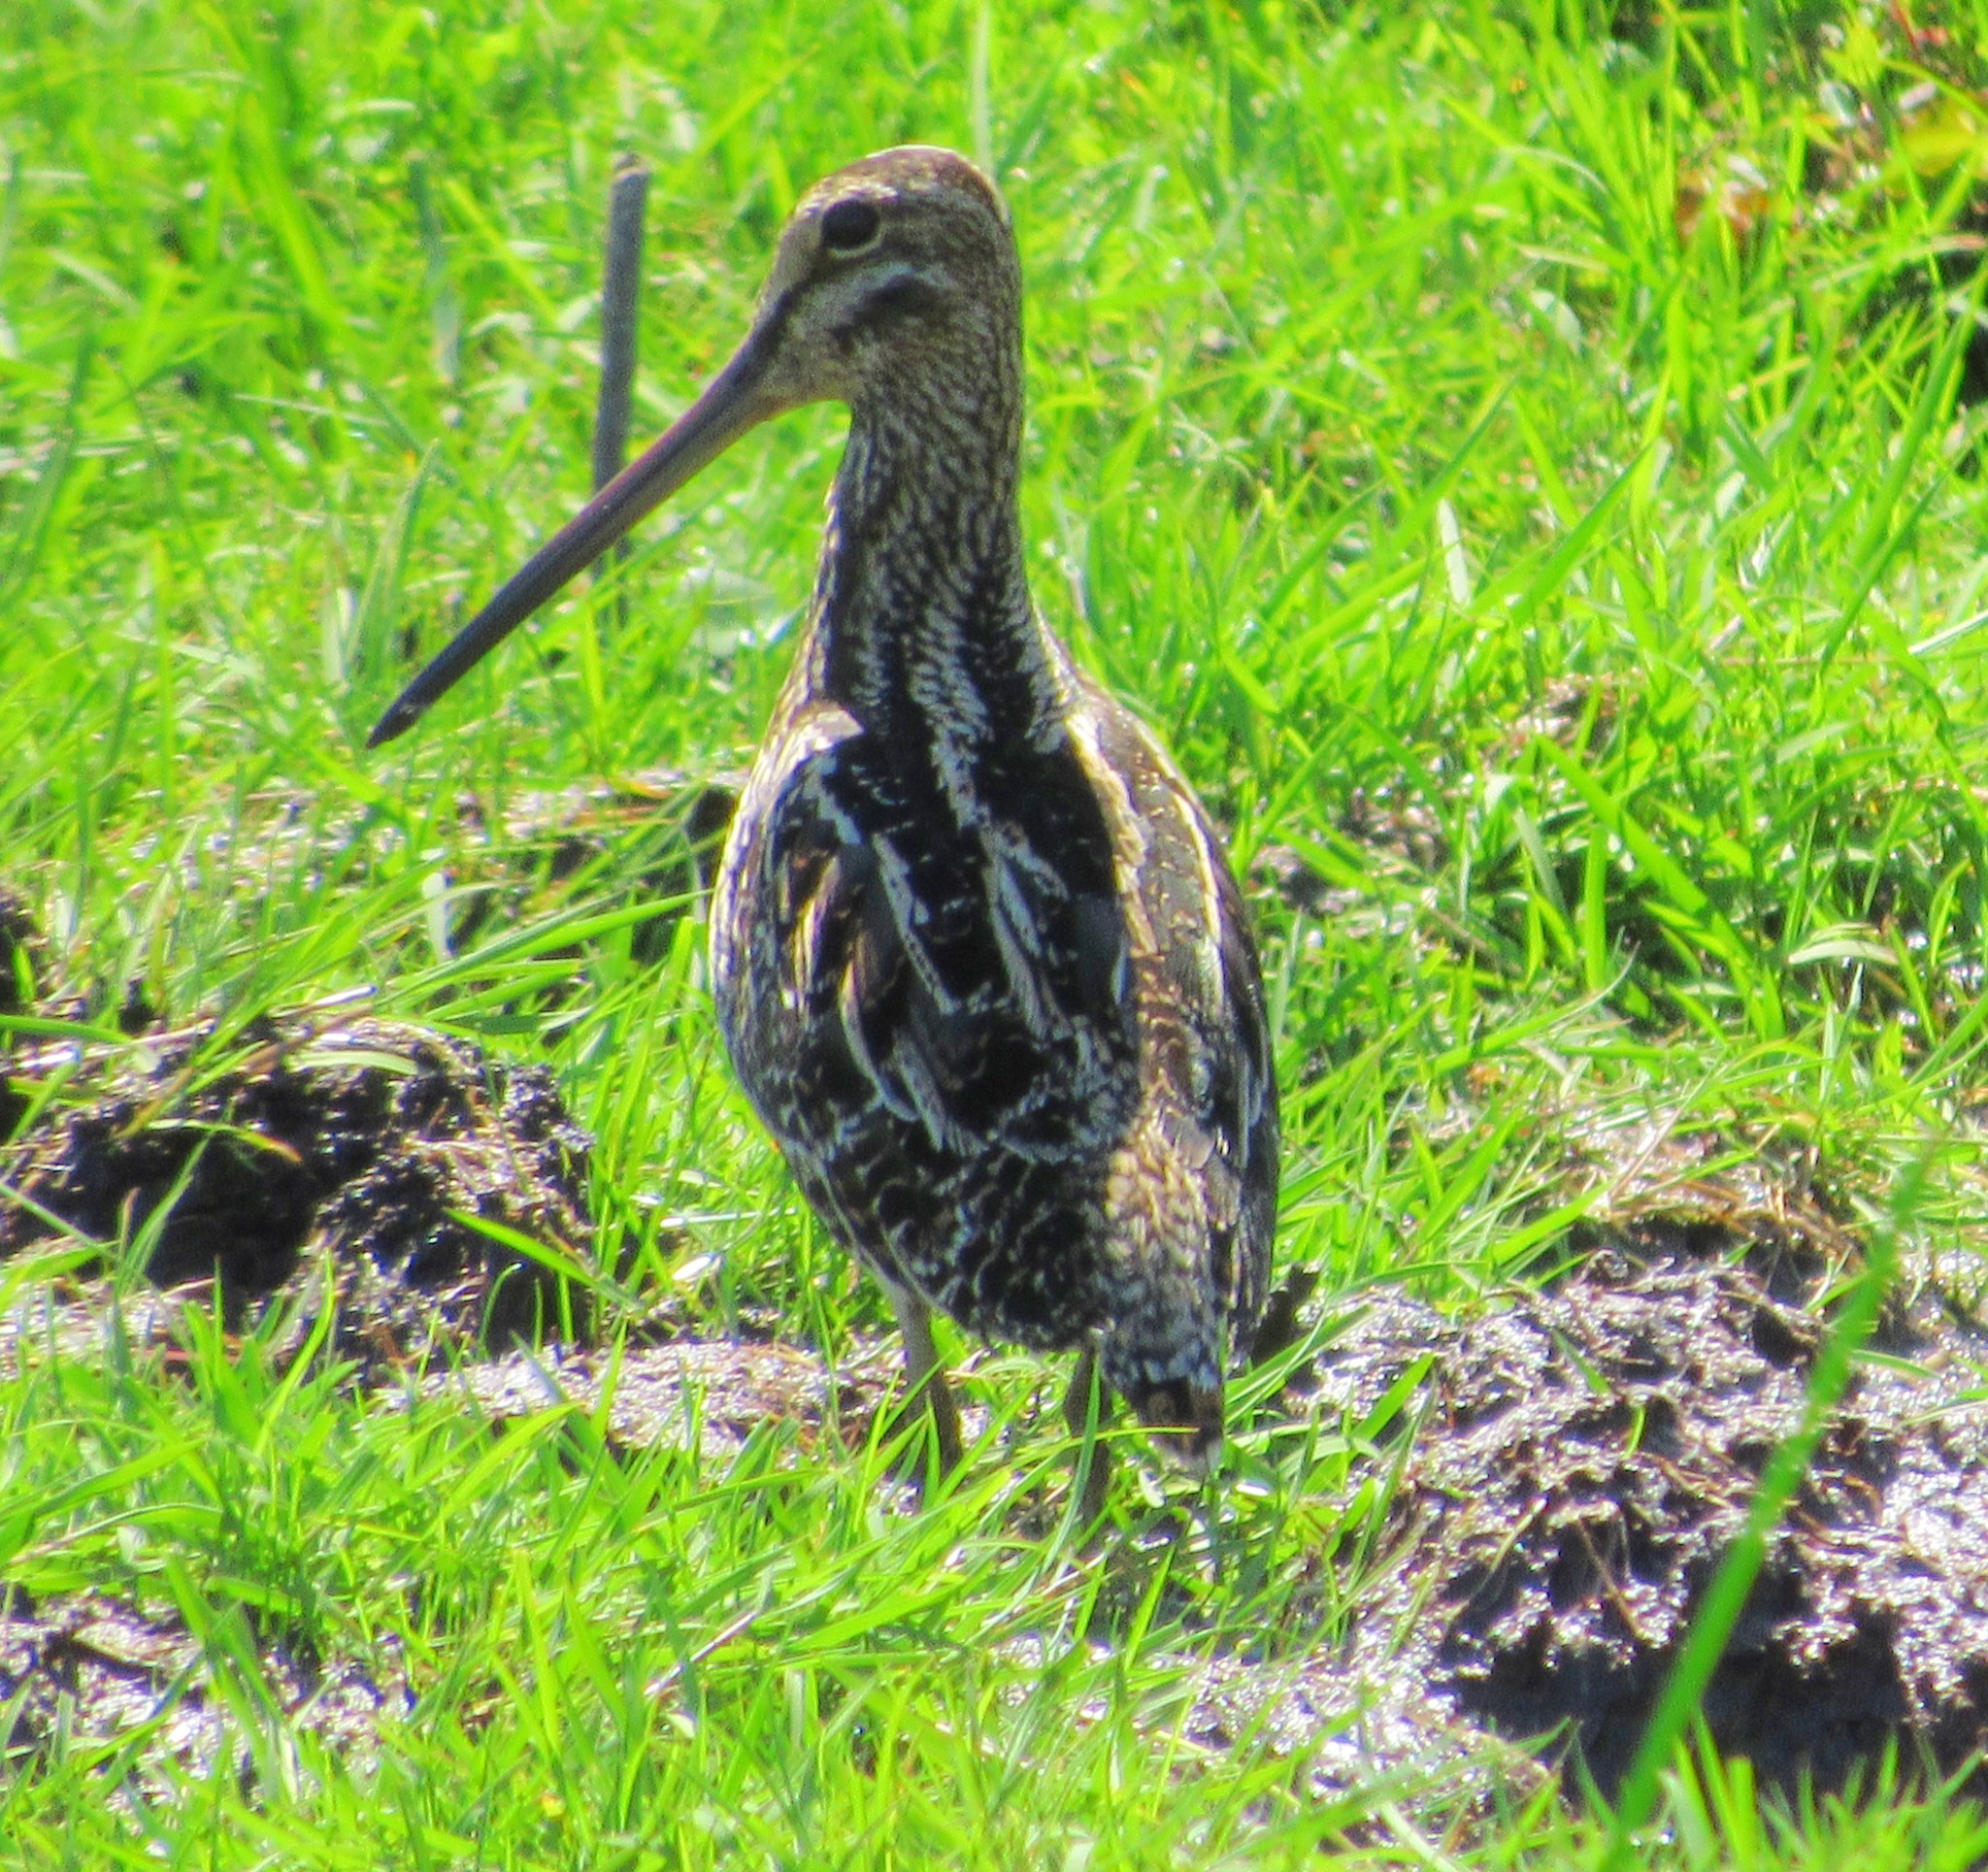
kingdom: Animalia
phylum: Chordata
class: Aves
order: Charadriiformes
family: Scolopacidae
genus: Gallinago
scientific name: Gallinago paraguaiae
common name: South american snipe
